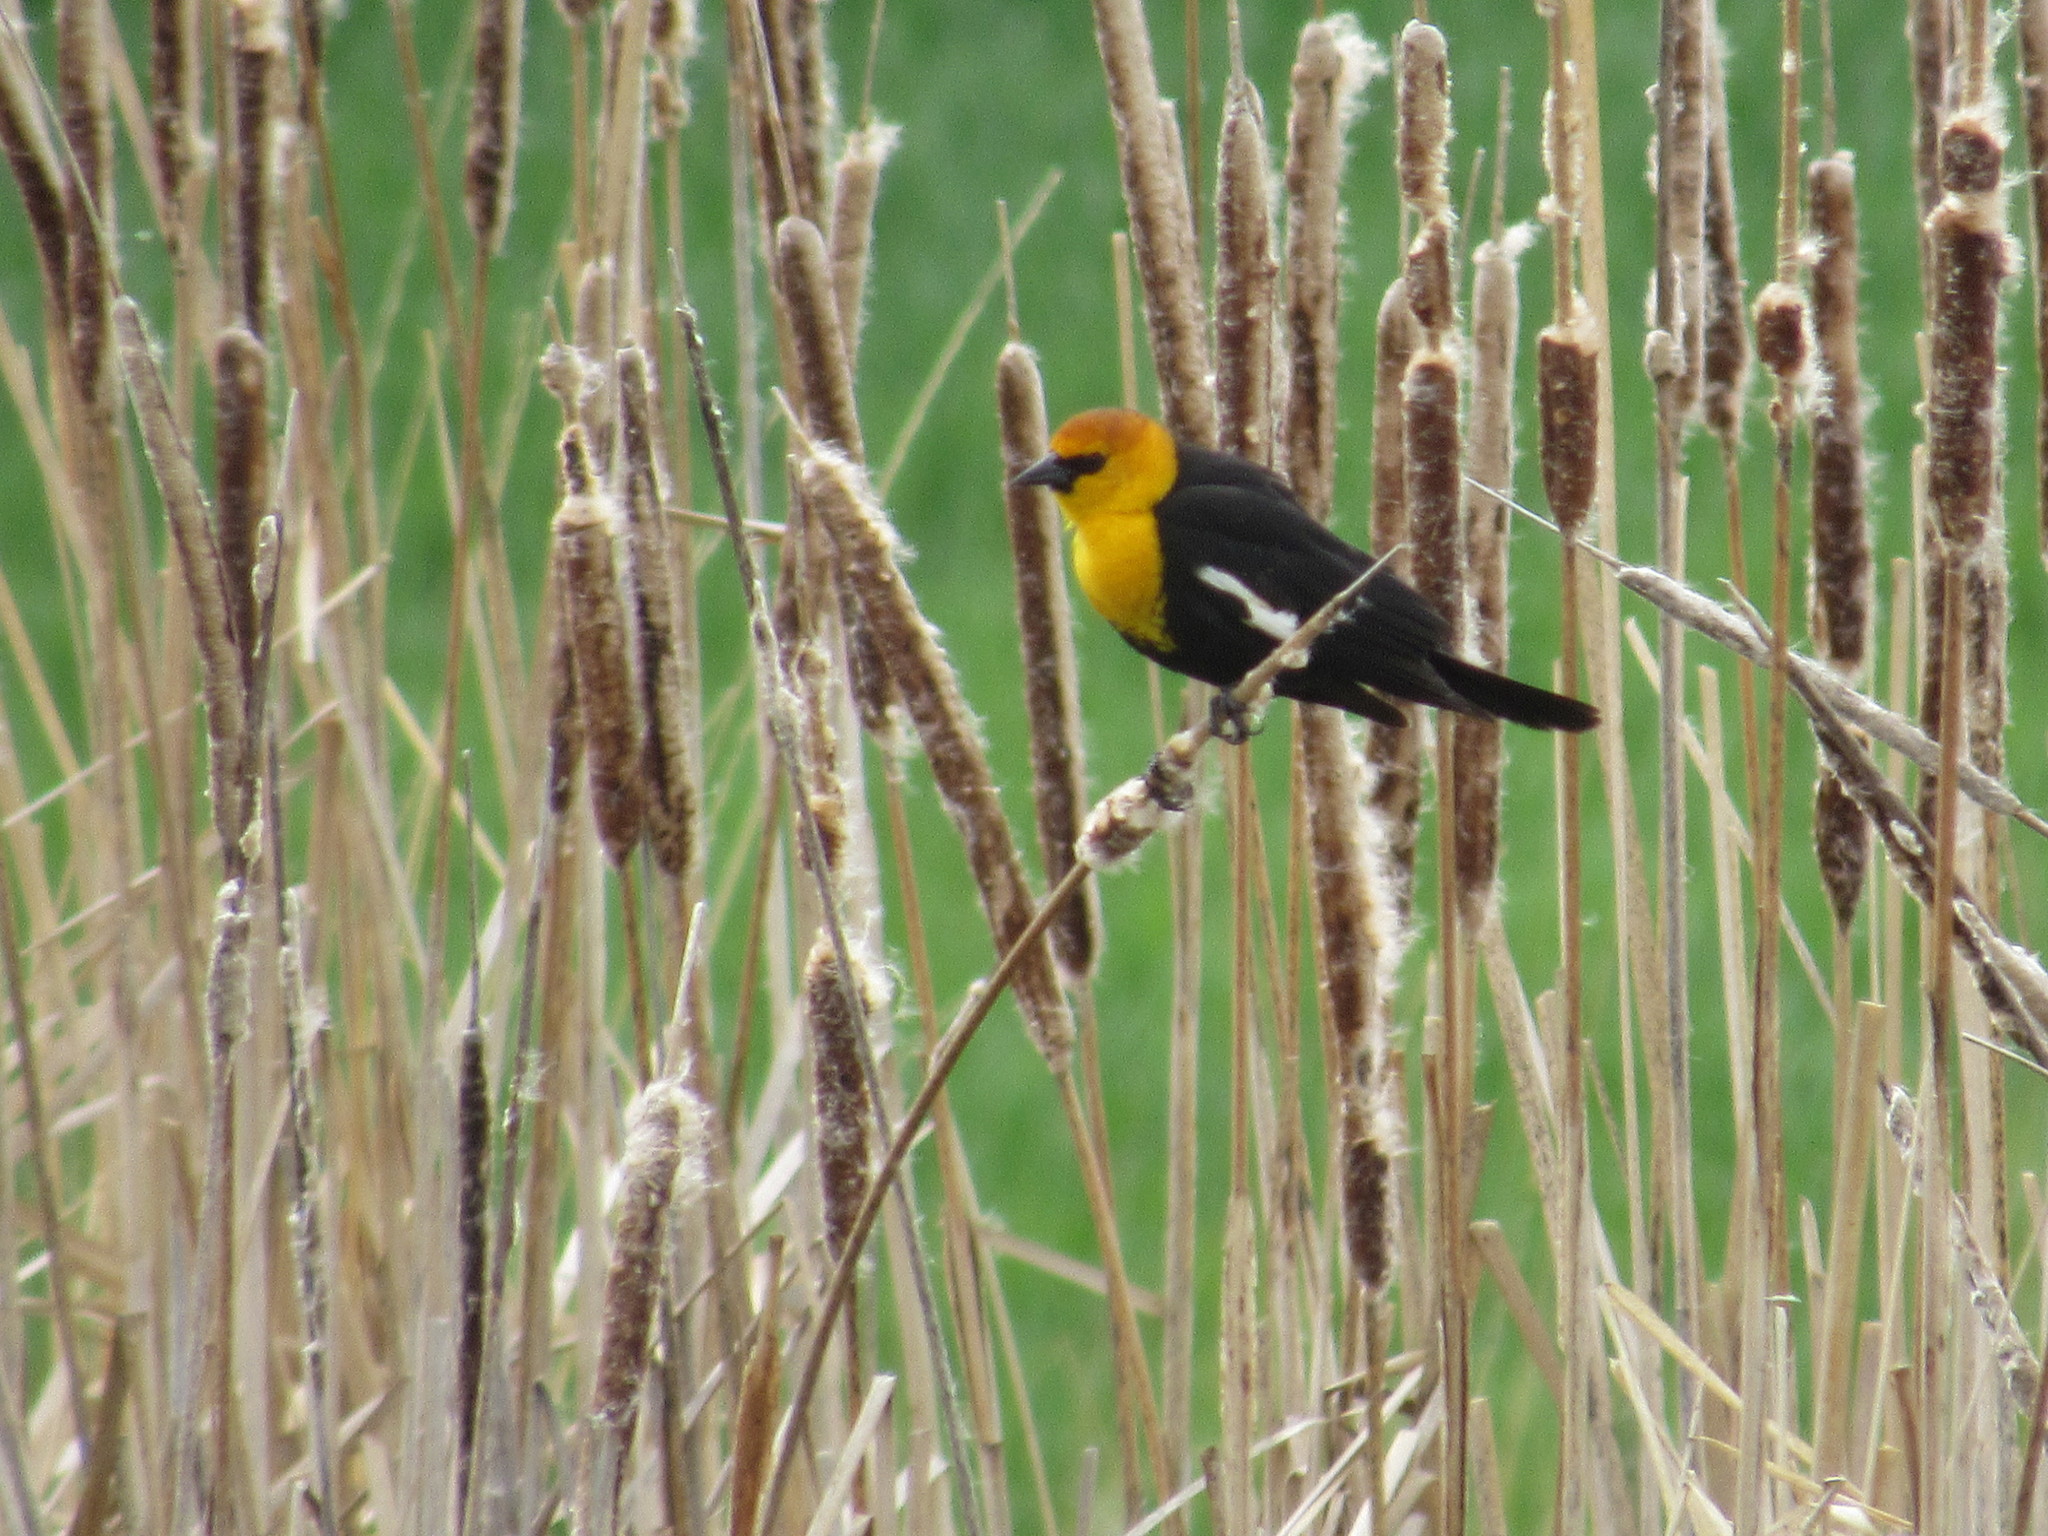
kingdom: Animalia
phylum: Chordata
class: Aves
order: Passeriformes
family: Icteridae
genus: Xanthocephalus
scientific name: Xanthocephalus xanthocephalus
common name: Yellow-headed blackbird
